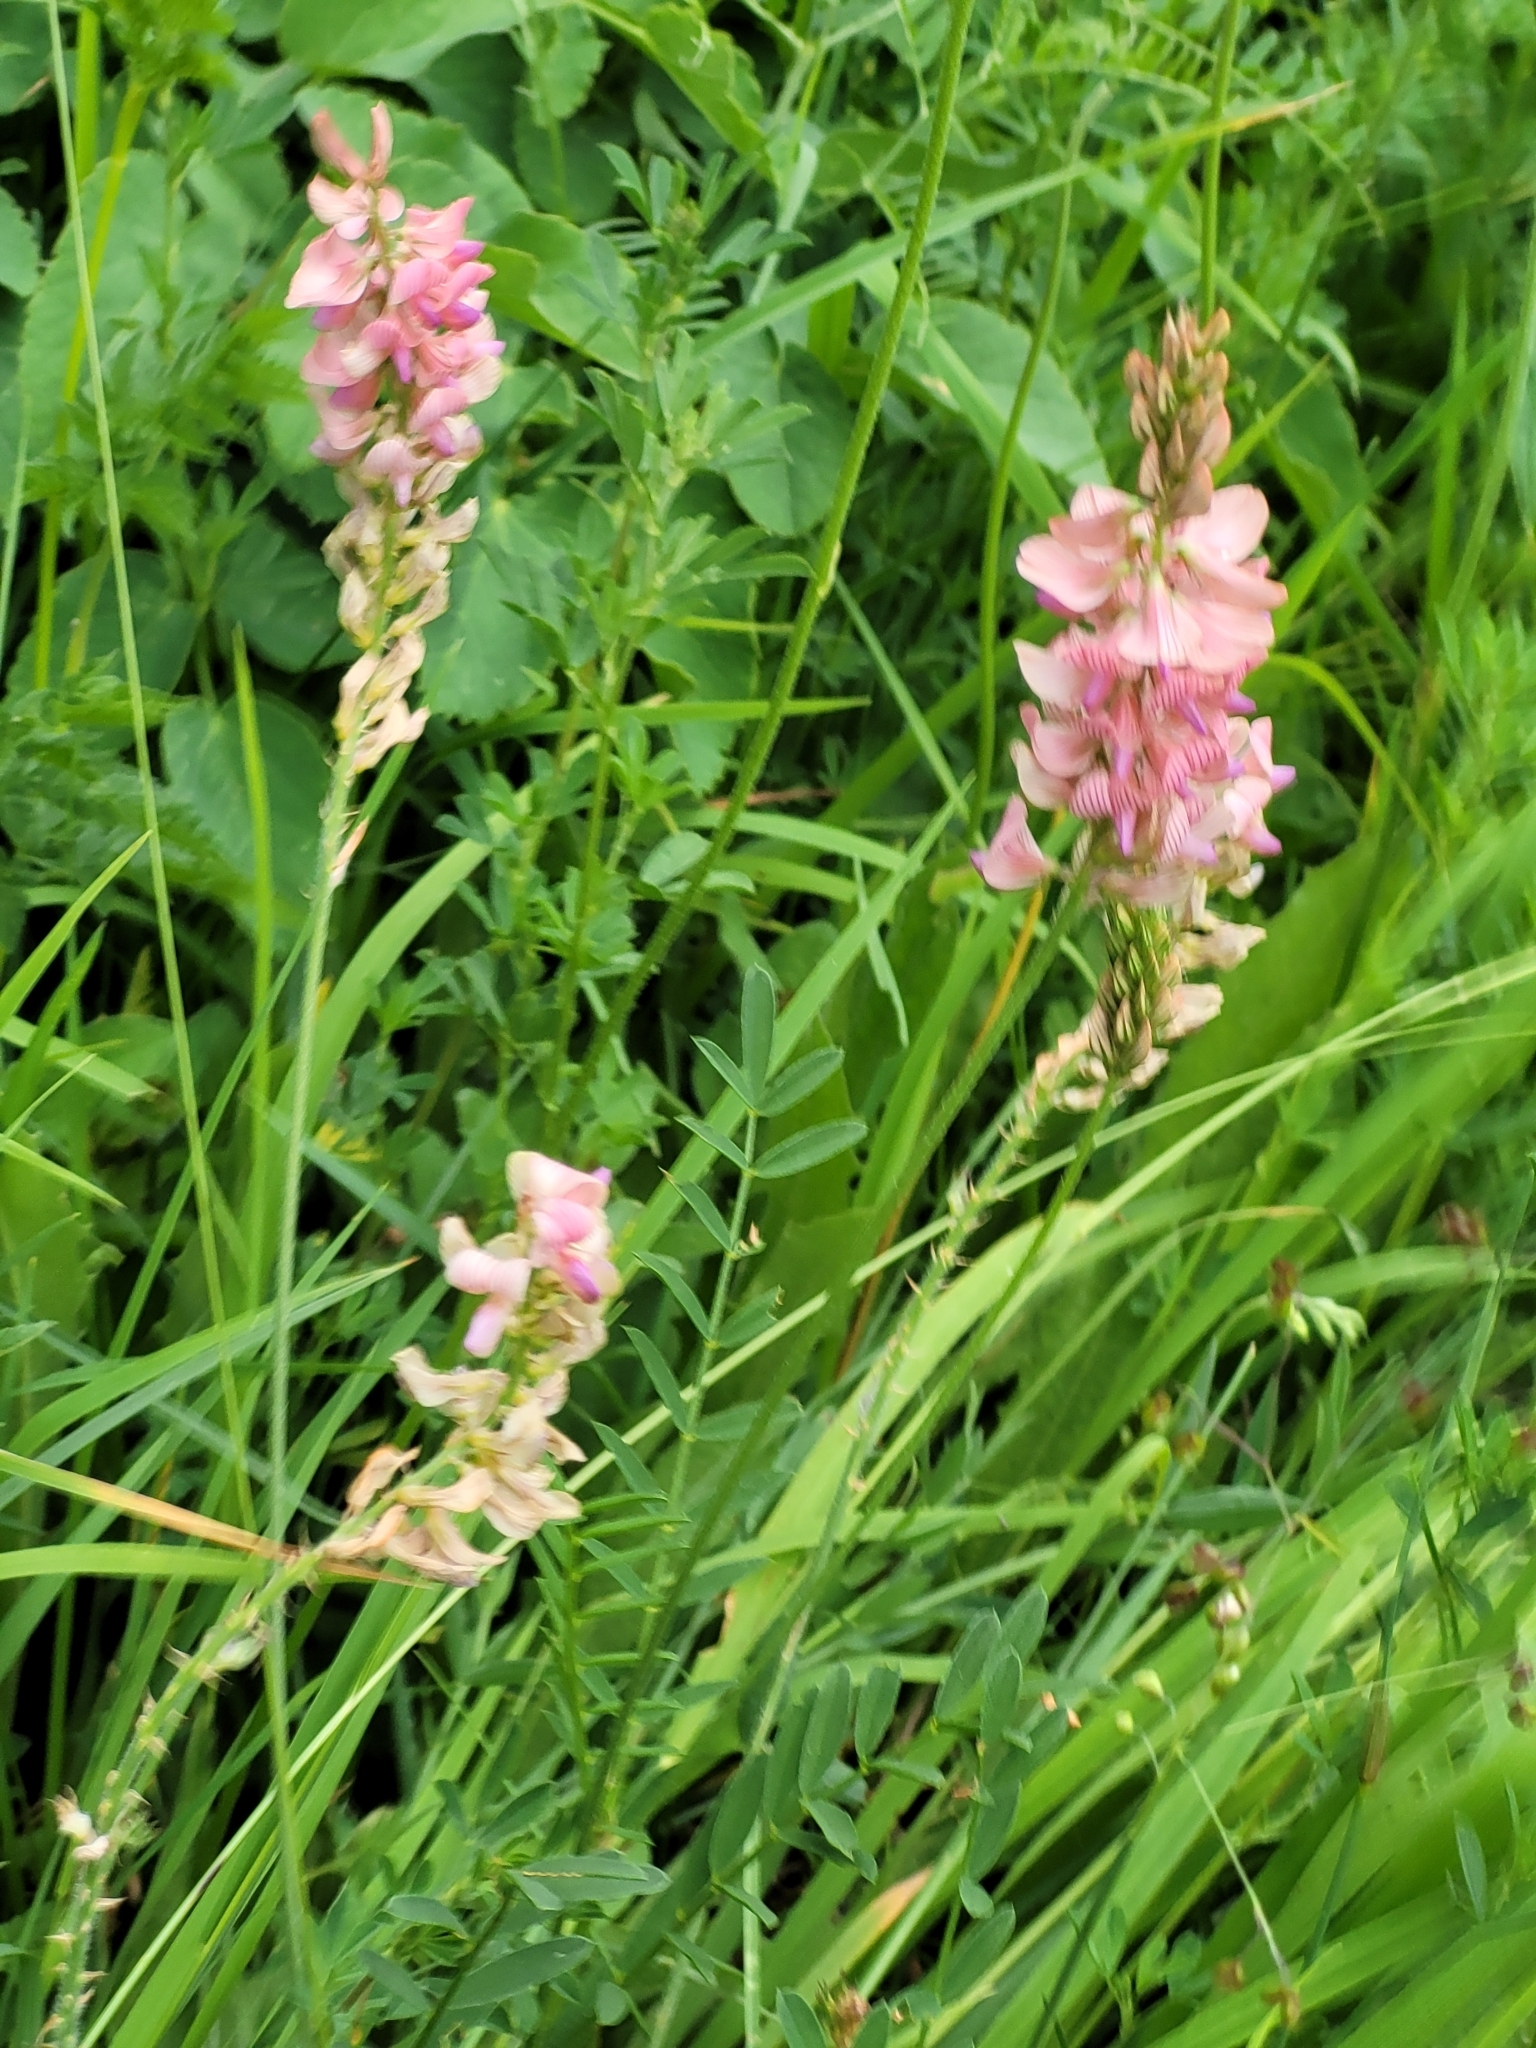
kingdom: Plantae
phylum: Tracheophyta
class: Magnoliopsida
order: Fabales
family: Fabaceae
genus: Onobrychis
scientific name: Onobrychis viciifolia
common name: Sainfoin
